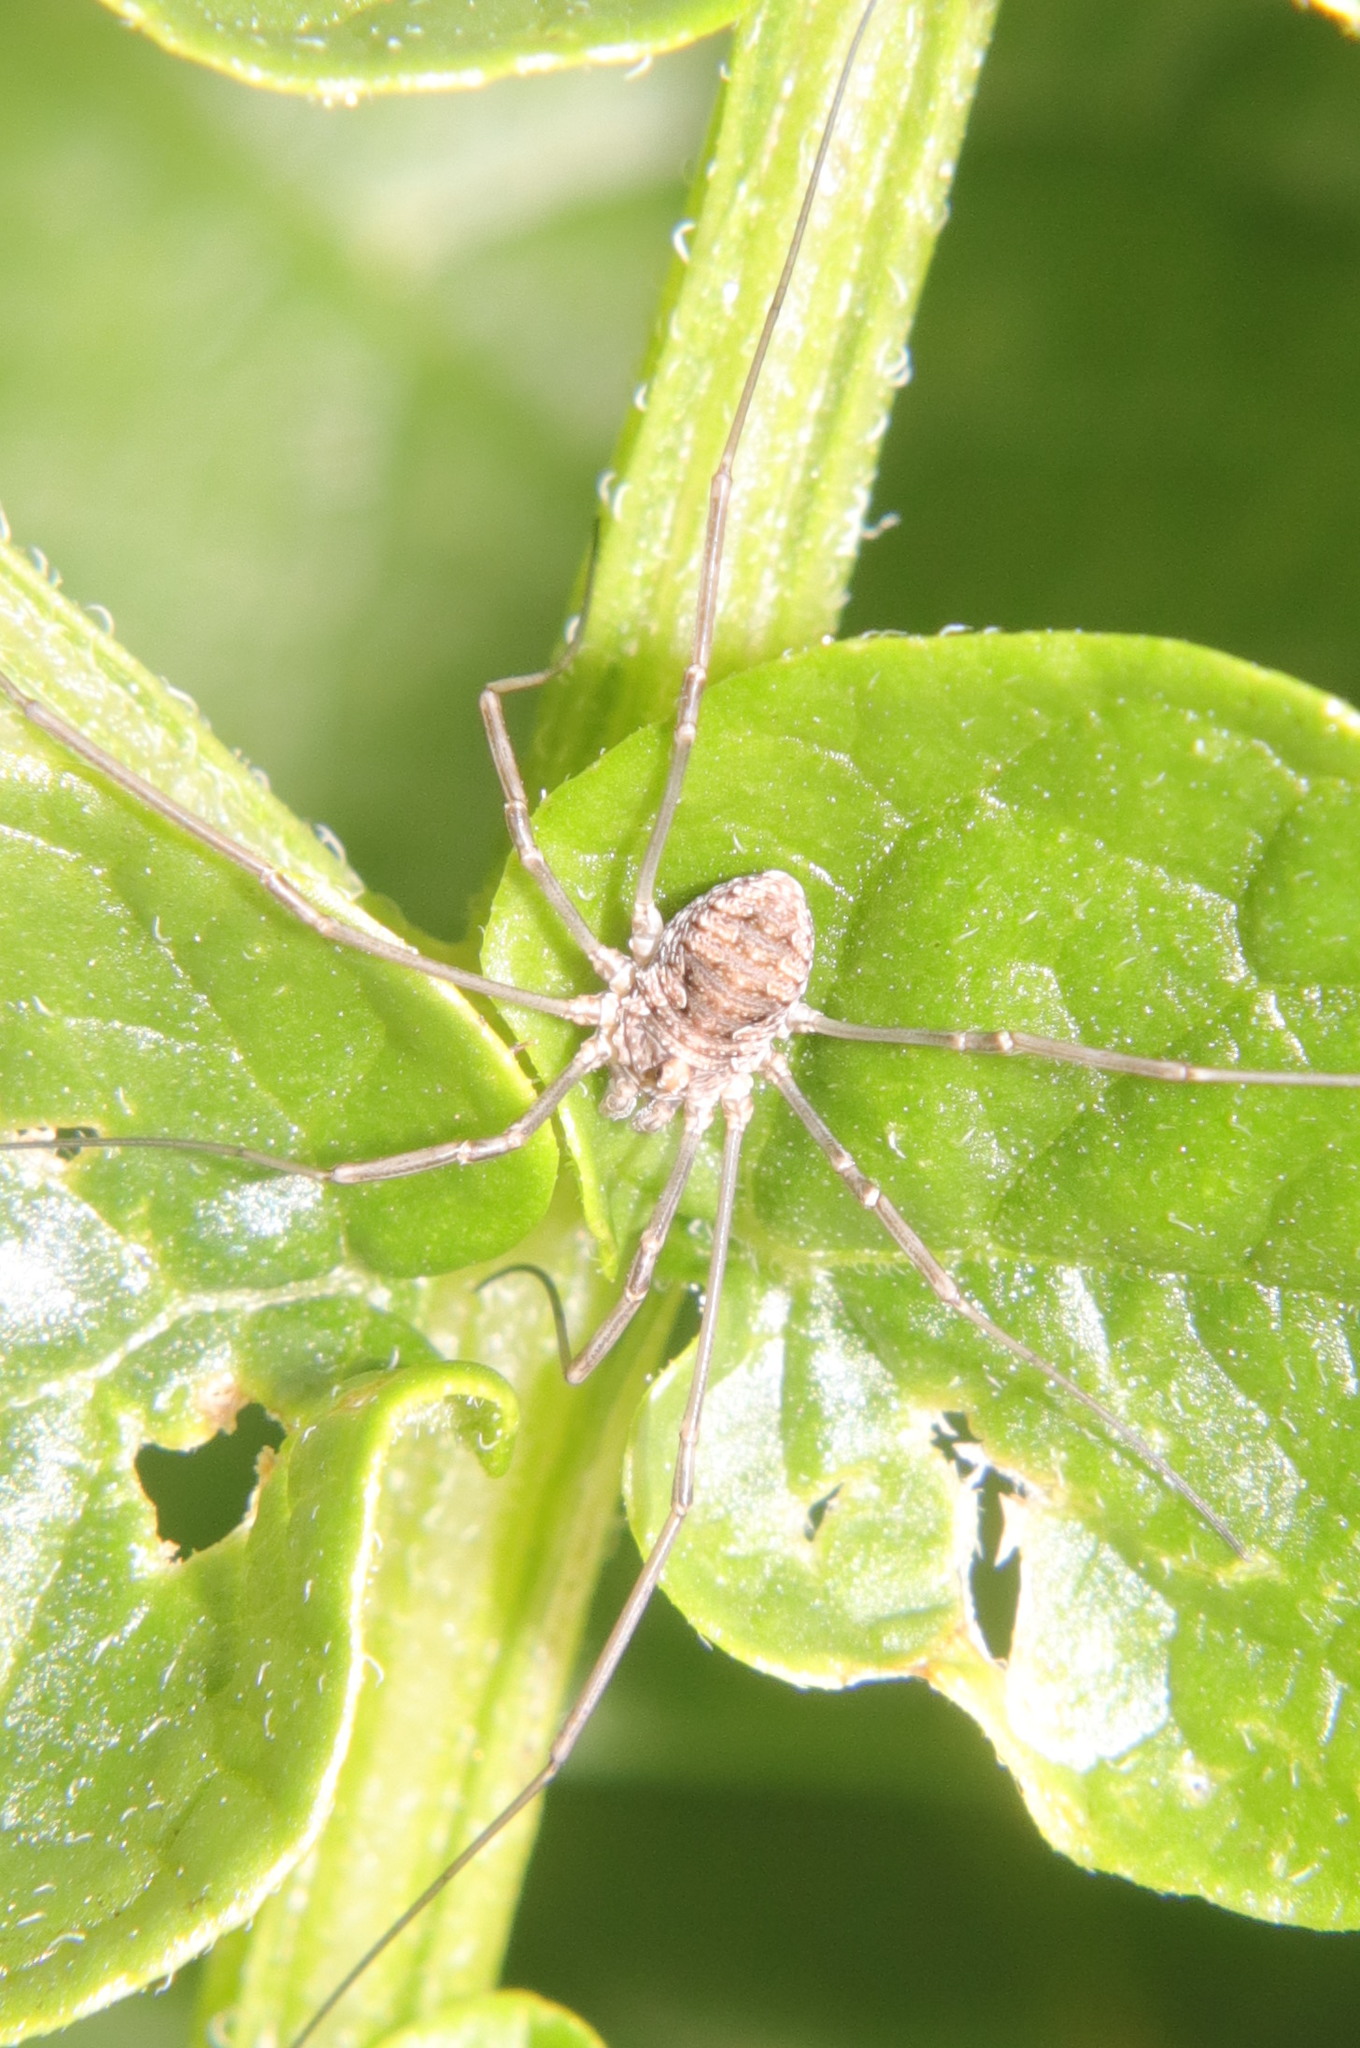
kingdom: Animalia
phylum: Arthropoda
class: Arachnida
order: Opiliones
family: Phalangiidae
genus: Phalangium
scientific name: Phalangium opilio
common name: Daddy longleg
